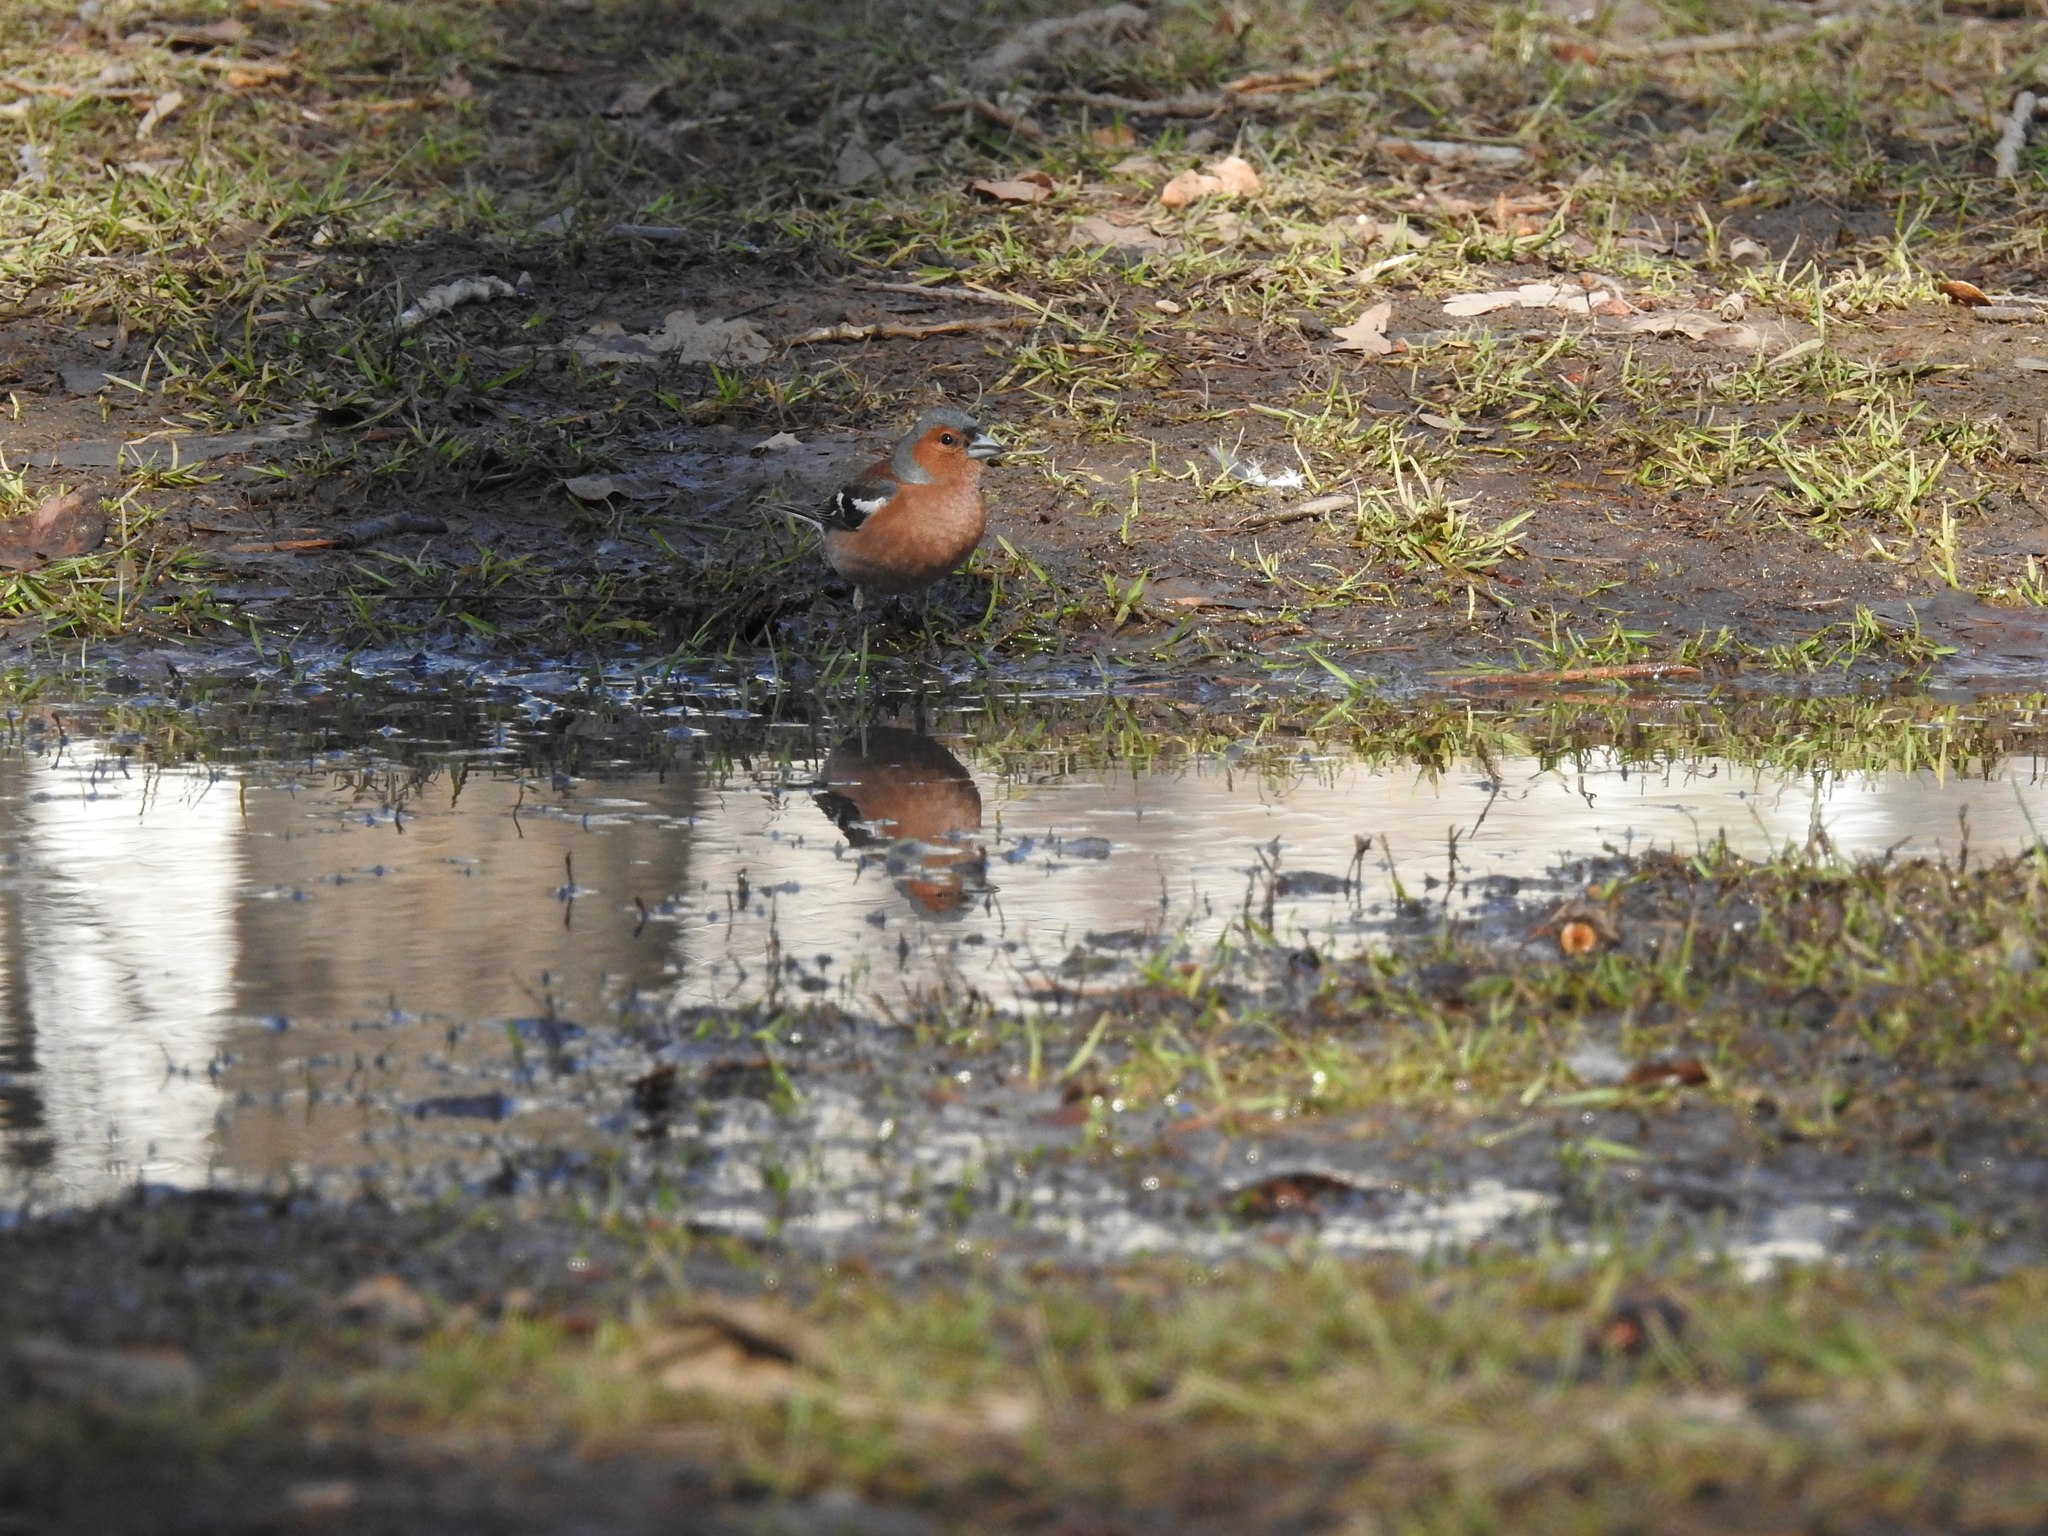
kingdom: Animalia
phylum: Chordata
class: Aves
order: Passeriformes
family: Fringillidae
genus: Fringilla
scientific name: Fringilla coelebs
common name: Common chaffinch
